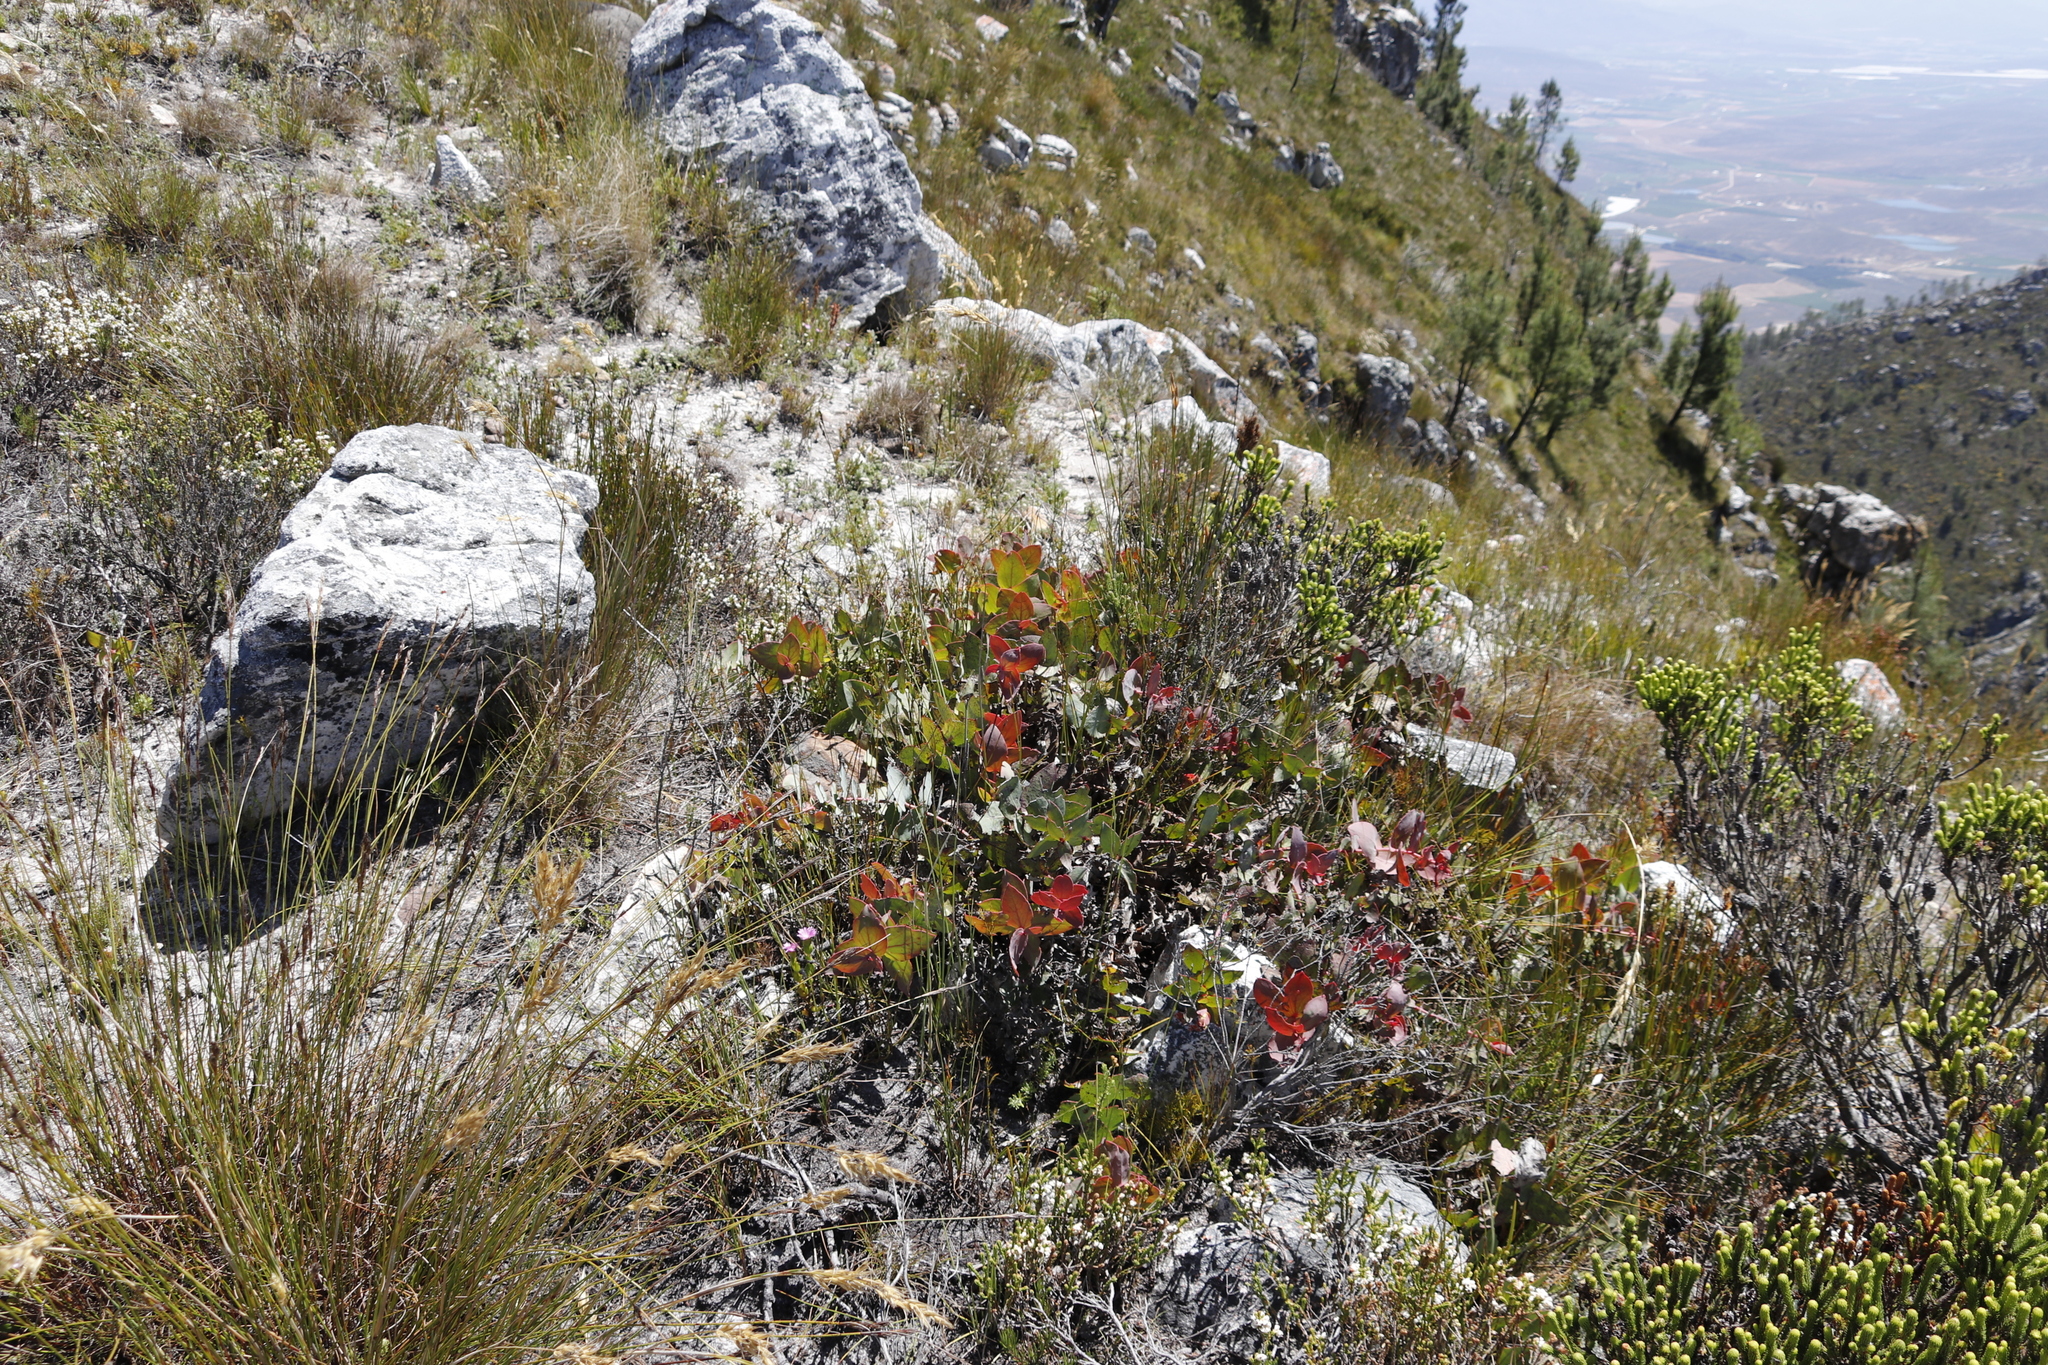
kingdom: Plantae
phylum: Tracheophyta
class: Magnoliopsida
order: Proteales
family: Proteaceae
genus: Protea
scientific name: Protea amplexicaulis
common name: Clasping-leaf sugarbush
